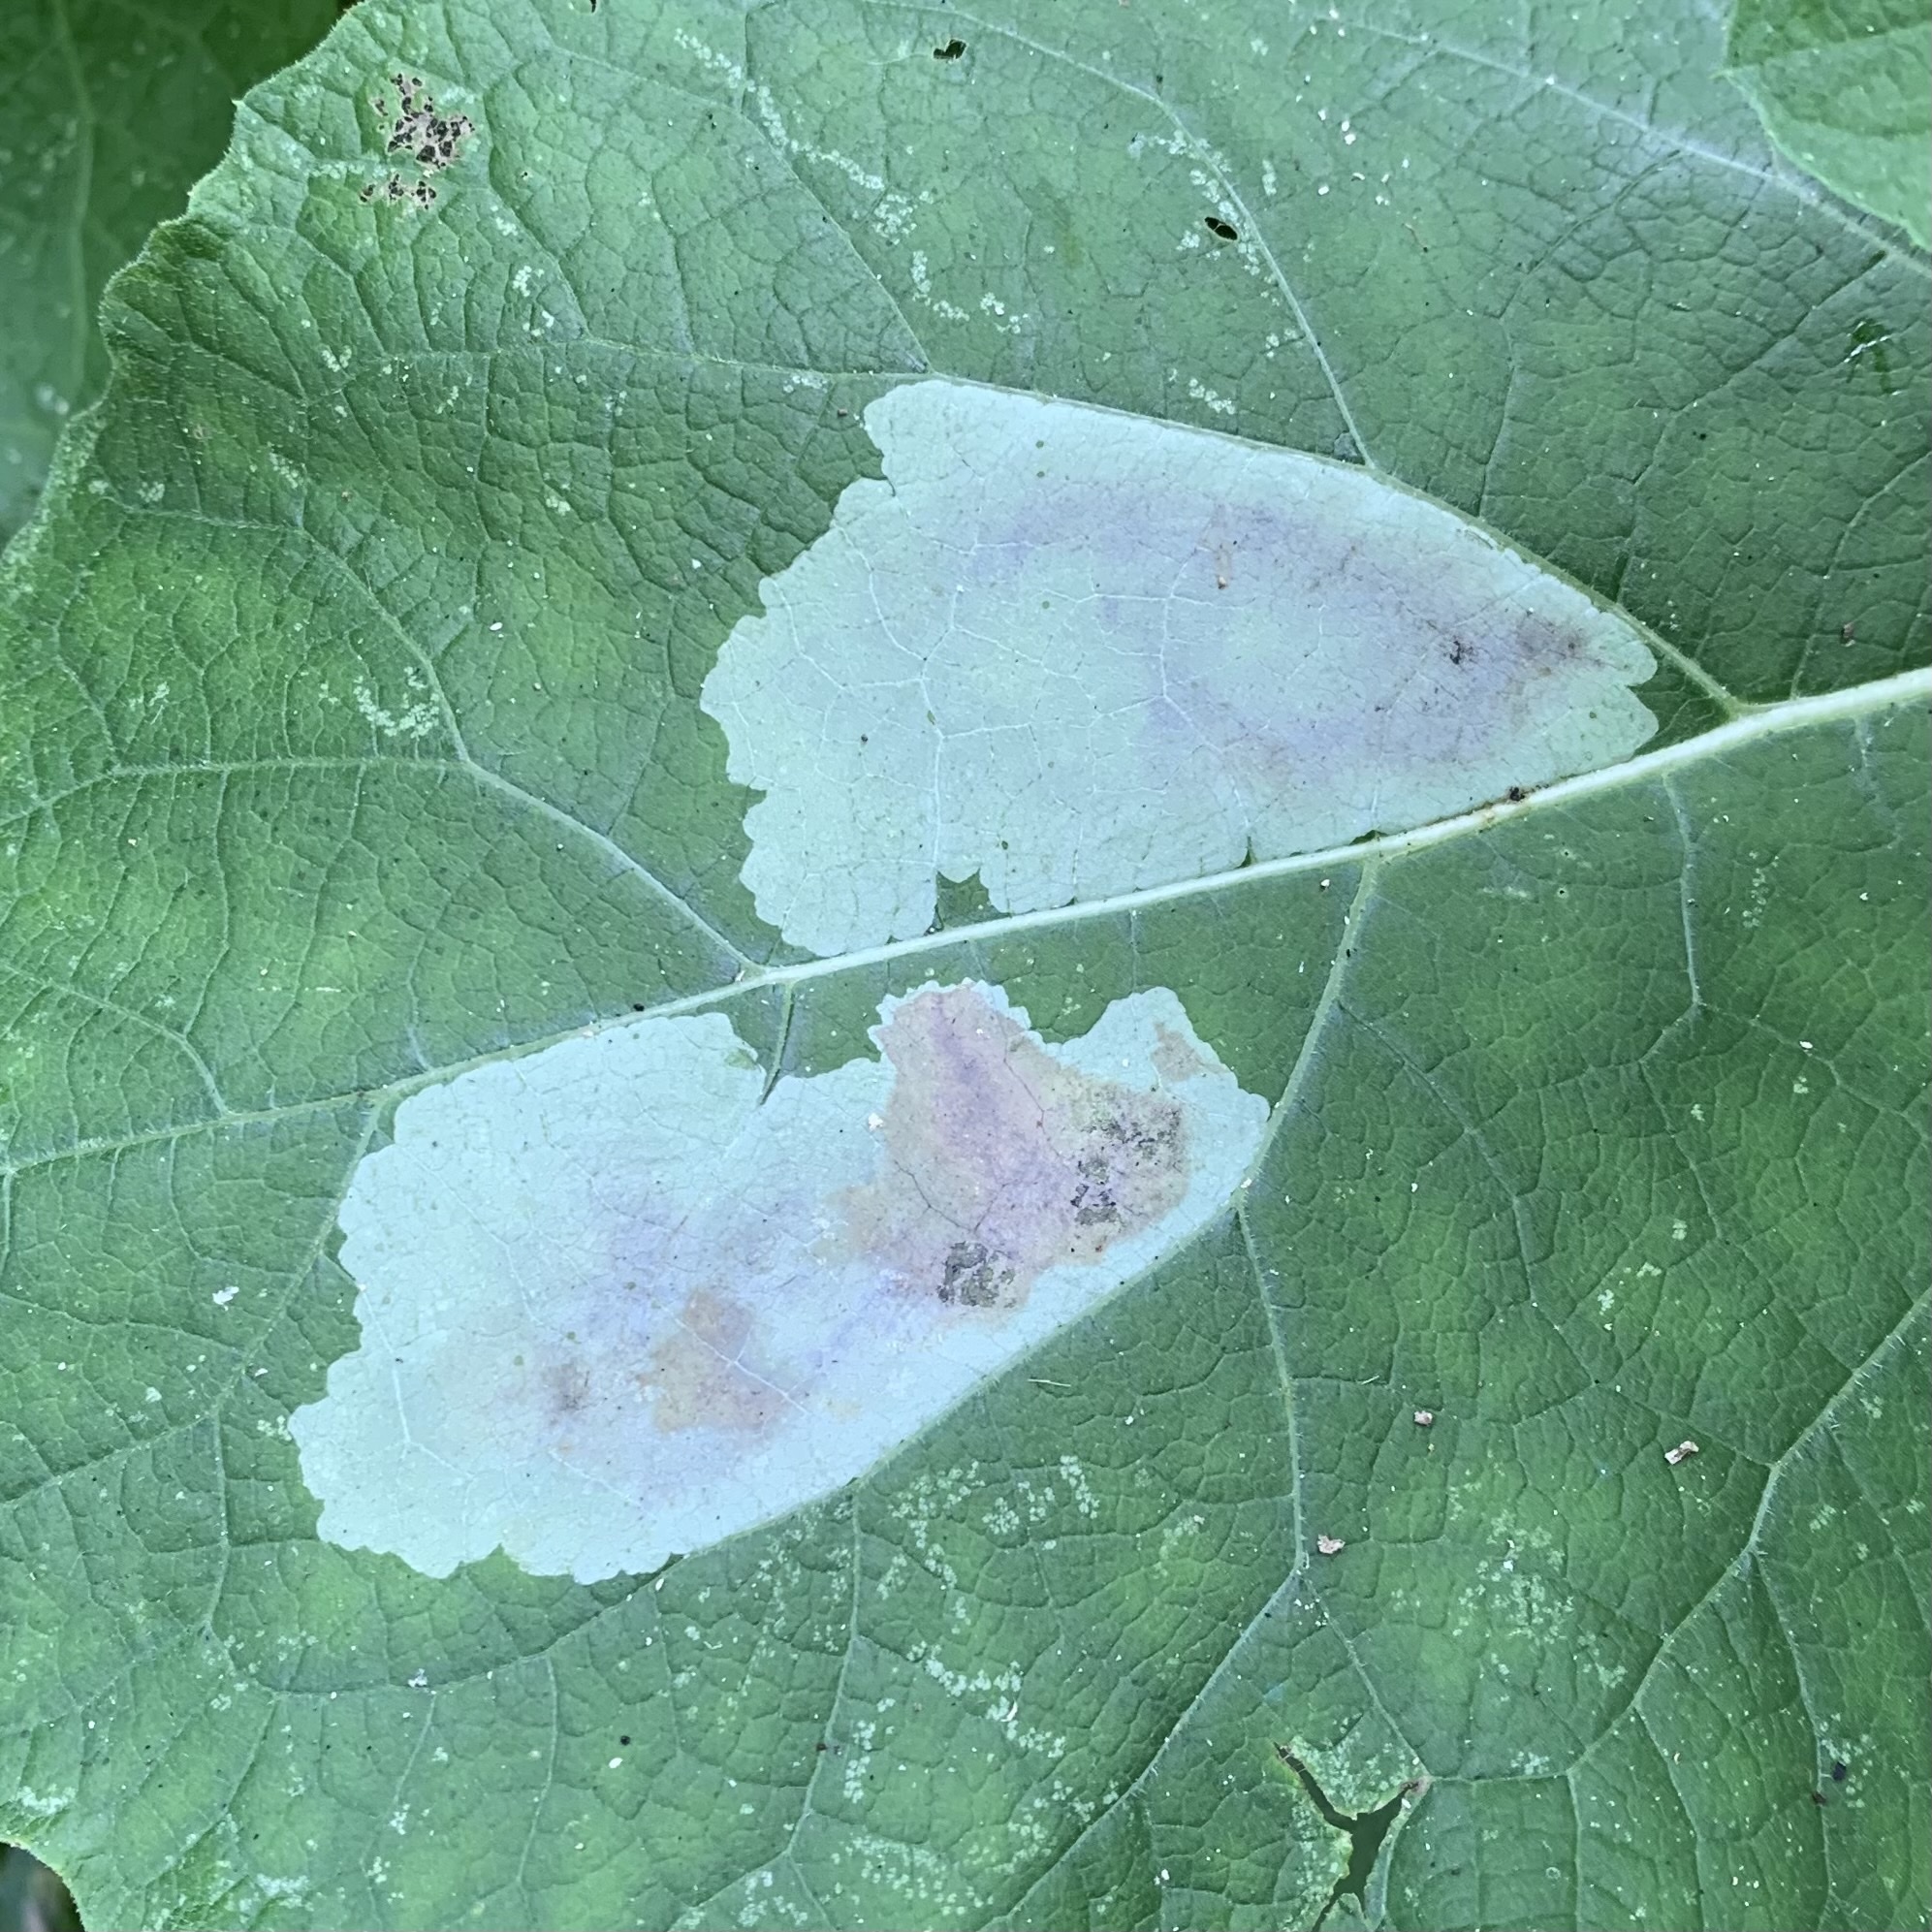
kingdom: Animalia
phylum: Arthropoda
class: Insecta
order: Diptera
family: Agromyzidae
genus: Calycomyza
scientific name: Calycomyza flavinotum
